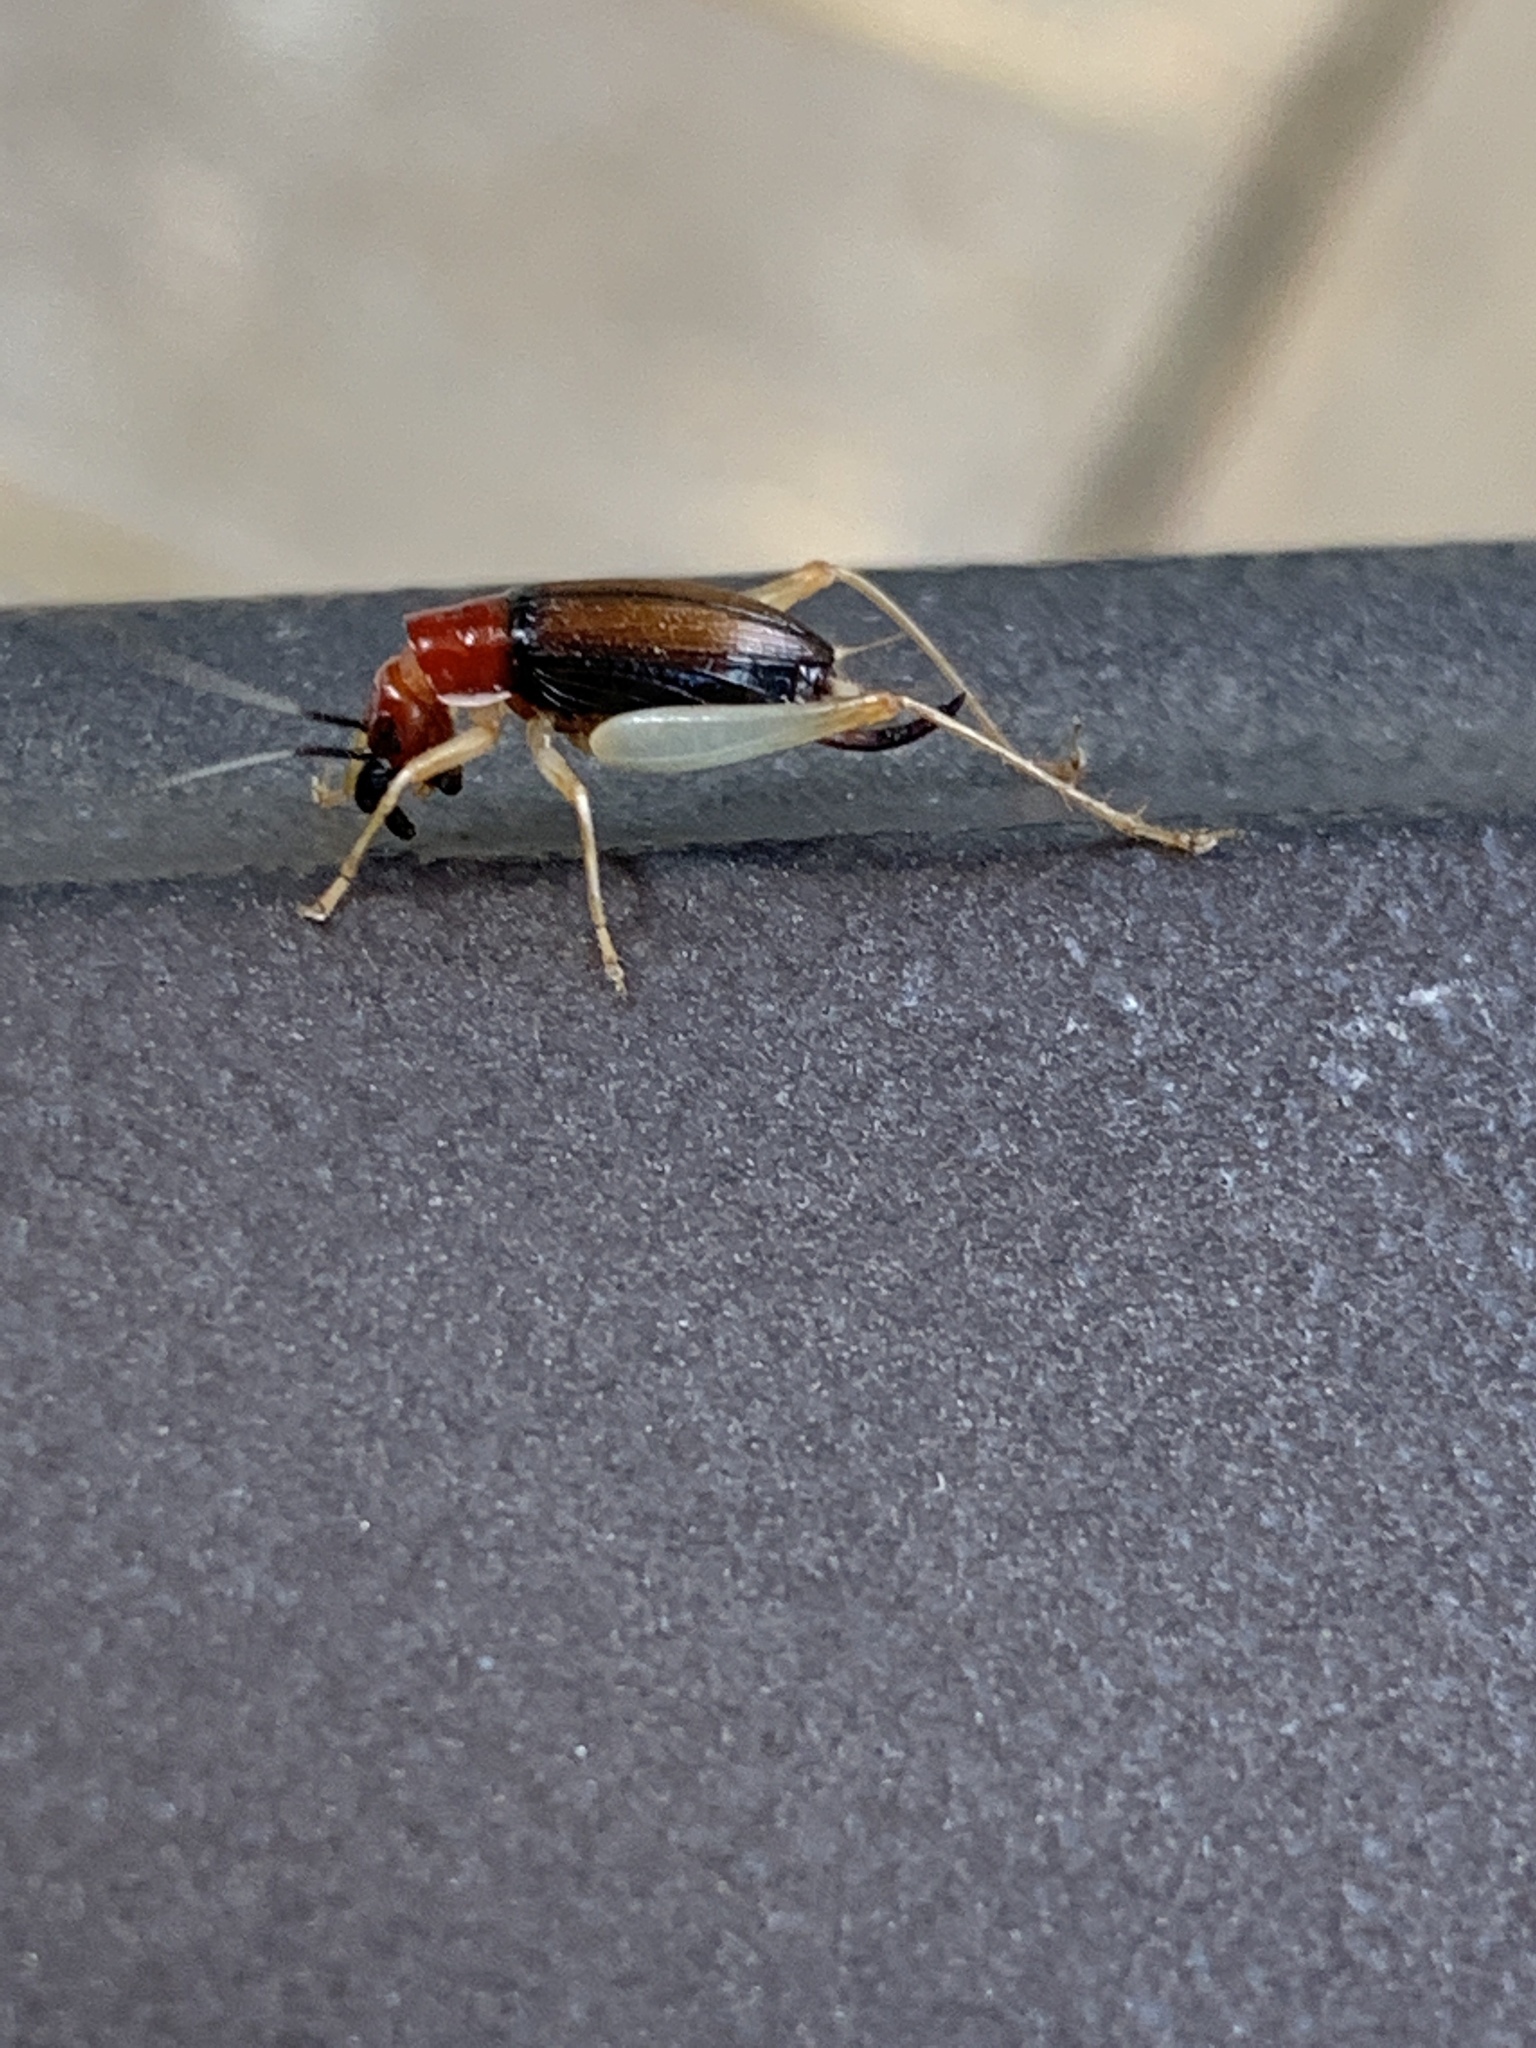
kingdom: Animalia
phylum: Arthropoda
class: Insecta
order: Orthoptera
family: Trigonidiidae
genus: Phyllopalpus
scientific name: Phyllopalpus pulchellus
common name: Handsome trig
